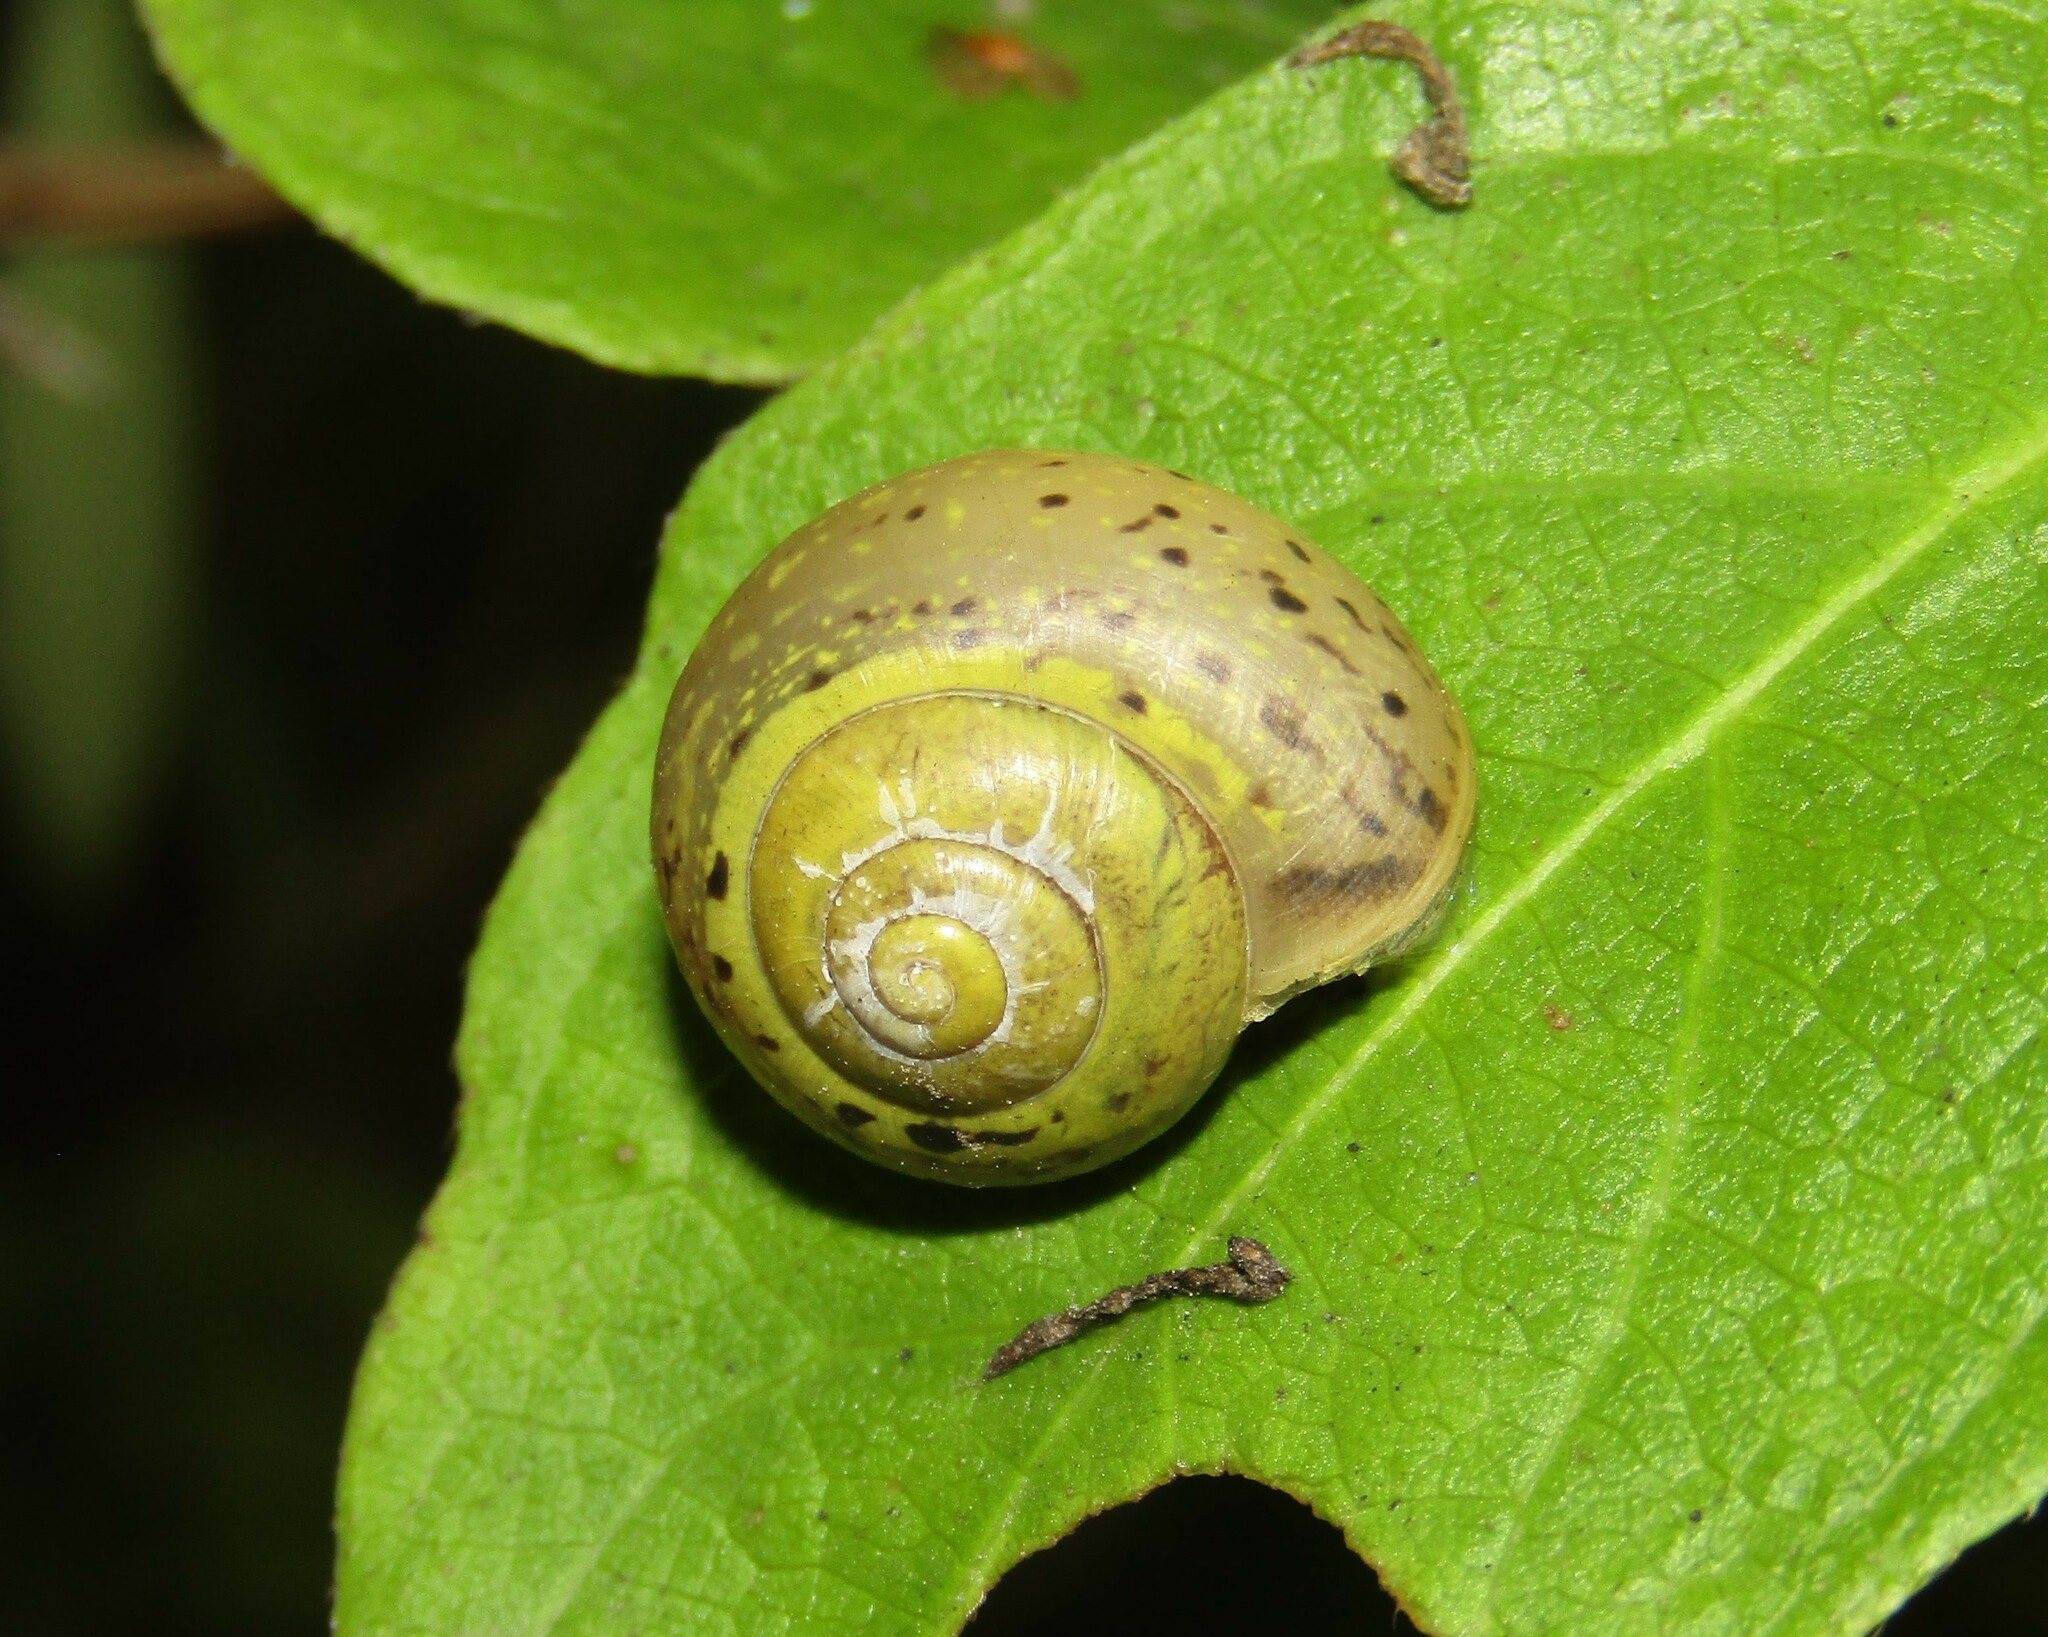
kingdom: Animalia
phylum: Mollusca
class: Gastropoda
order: Stylommatophora
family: Camaenidae
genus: Fruticicola
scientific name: Fruticicola fruticum
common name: Bush snail
